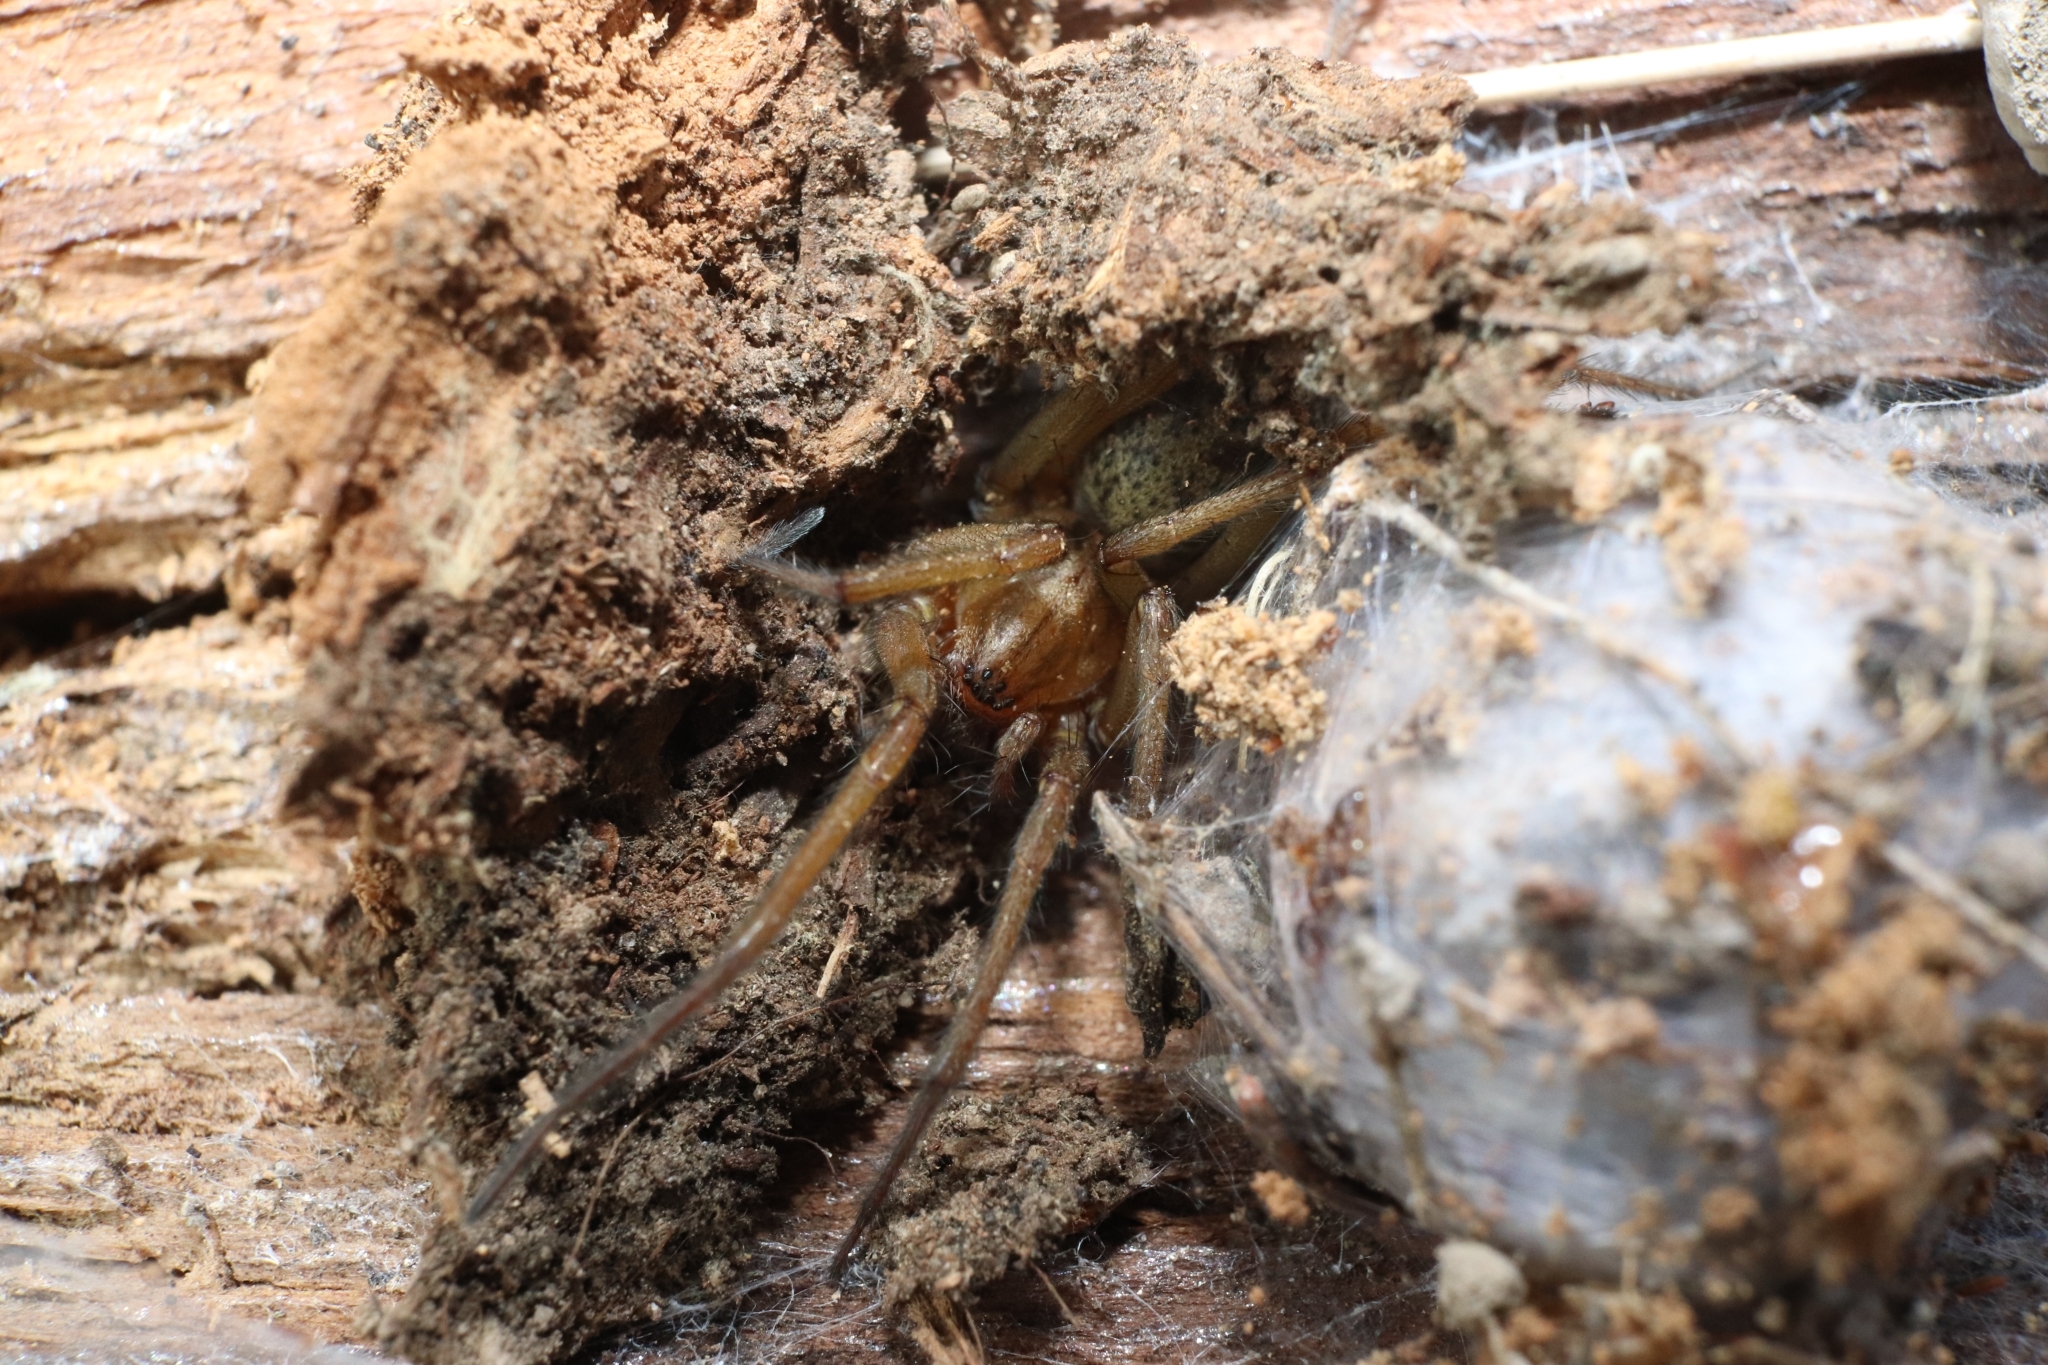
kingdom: Animalia
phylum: Arthropoda
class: Arachnida
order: Araneae
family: Agelenidae
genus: Eratigena
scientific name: Eratigena agrestis
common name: Hobo spider
